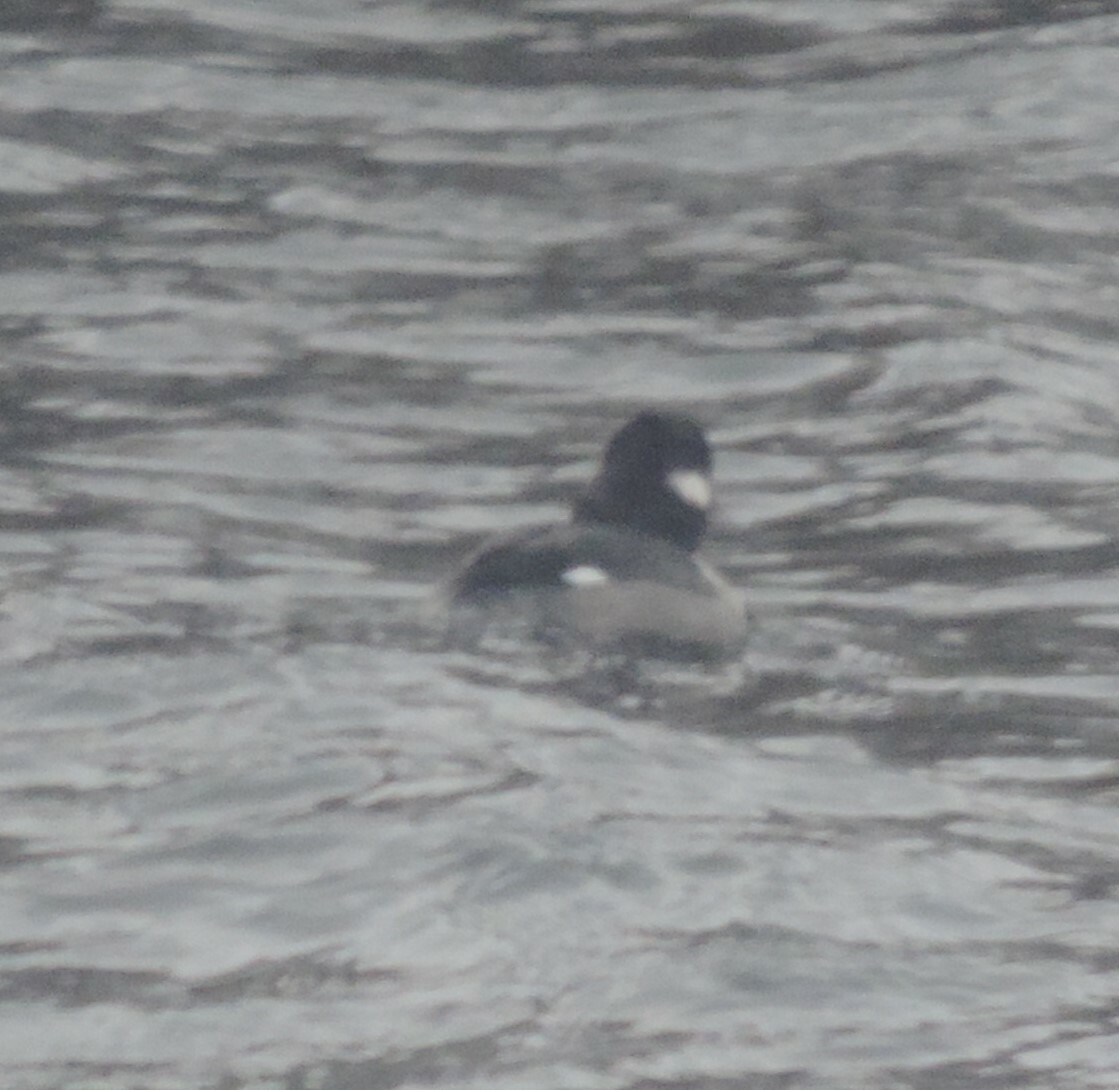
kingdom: Animalia
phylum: Chordata
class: Aves
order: Anseriformes
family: Anatidae
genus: Bucephala
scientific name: Bucephala albeola
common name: Bufflehead
